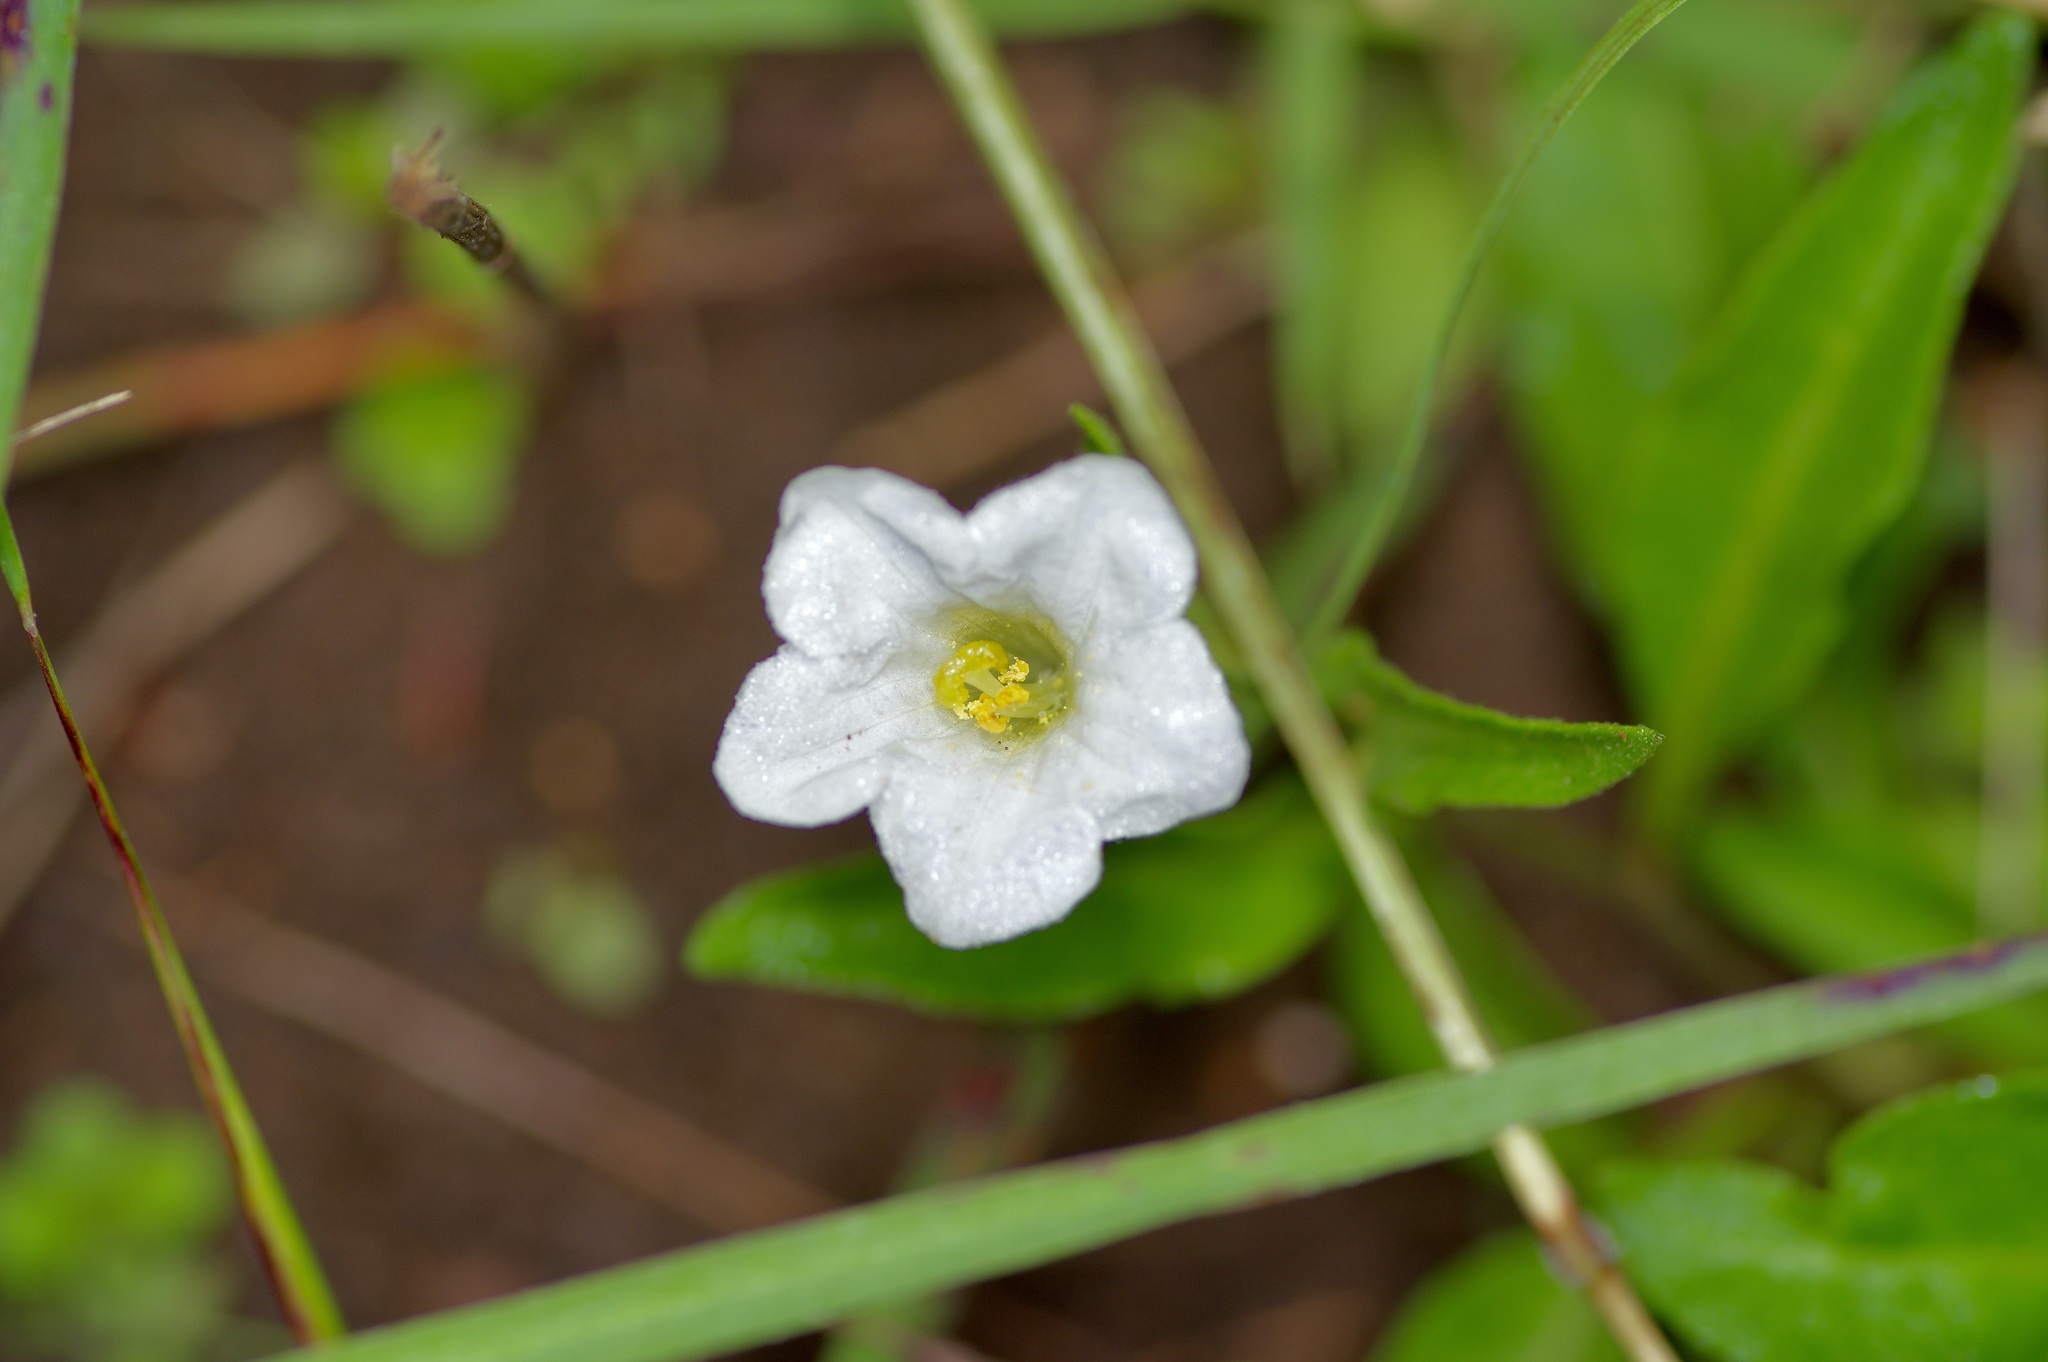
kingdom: Plantae
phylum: Tracheophyta
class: Magnoliopsida
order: Solanales
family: Solanaceae
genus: Salpiglossis
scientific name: Salpiglossis erecta
